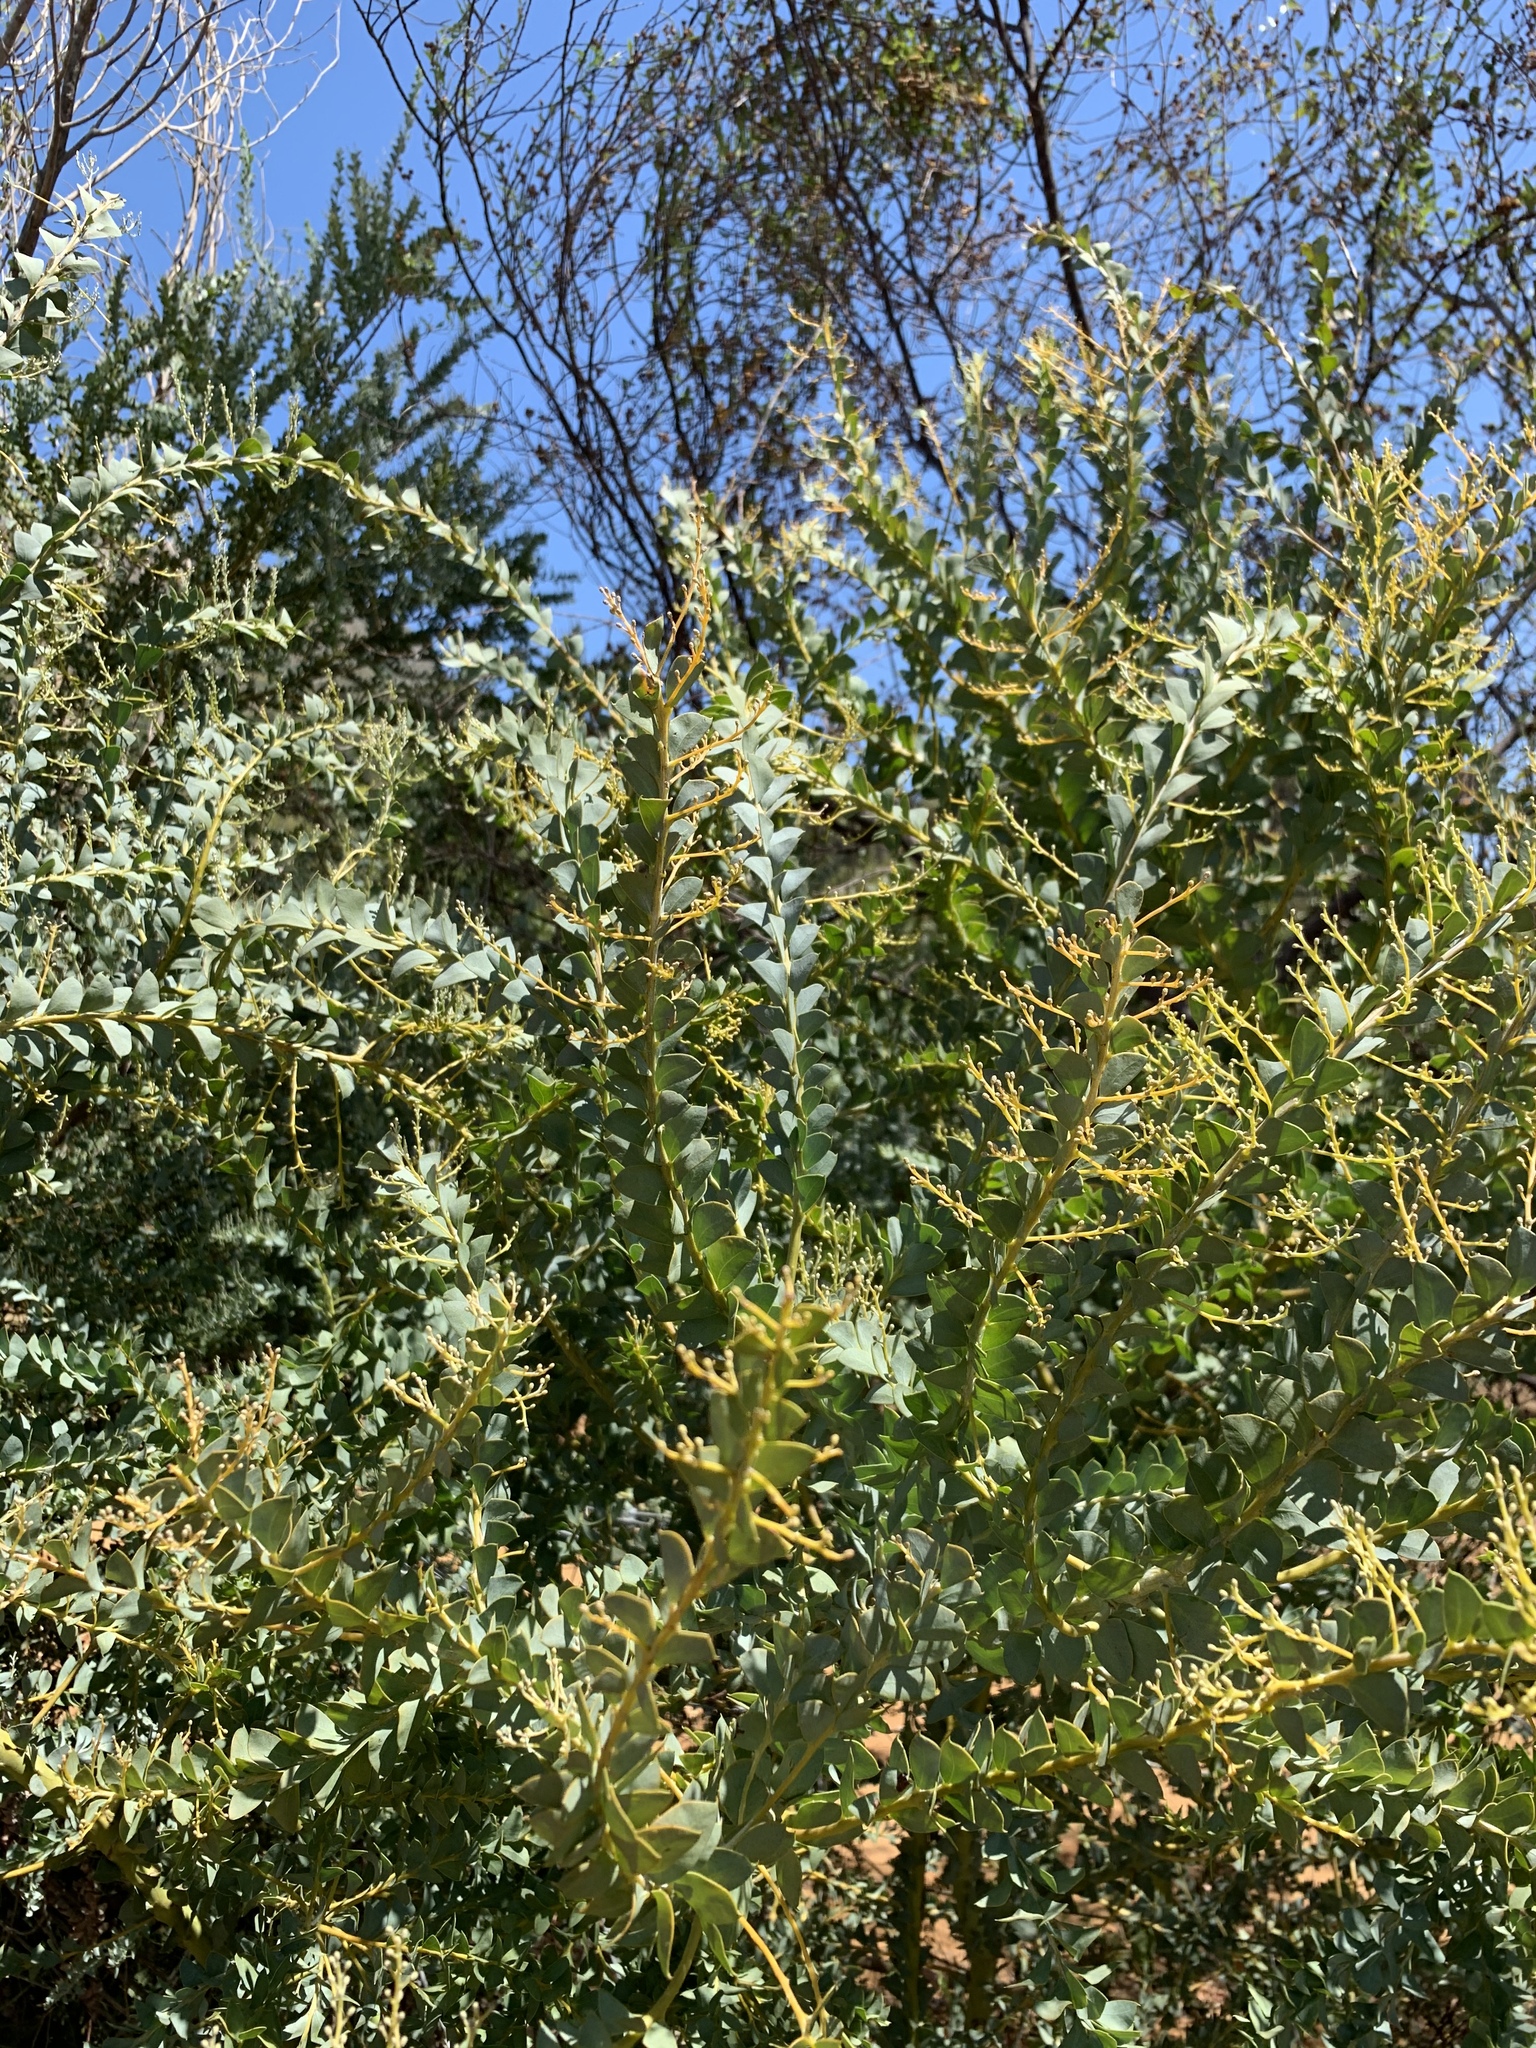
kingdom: Plantae
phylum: Tracheophyta
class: Magnoliopsida
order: Fabales
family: Fabaceae
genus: Acacia
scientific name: Acacia cultriformis
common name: Knife acacia
